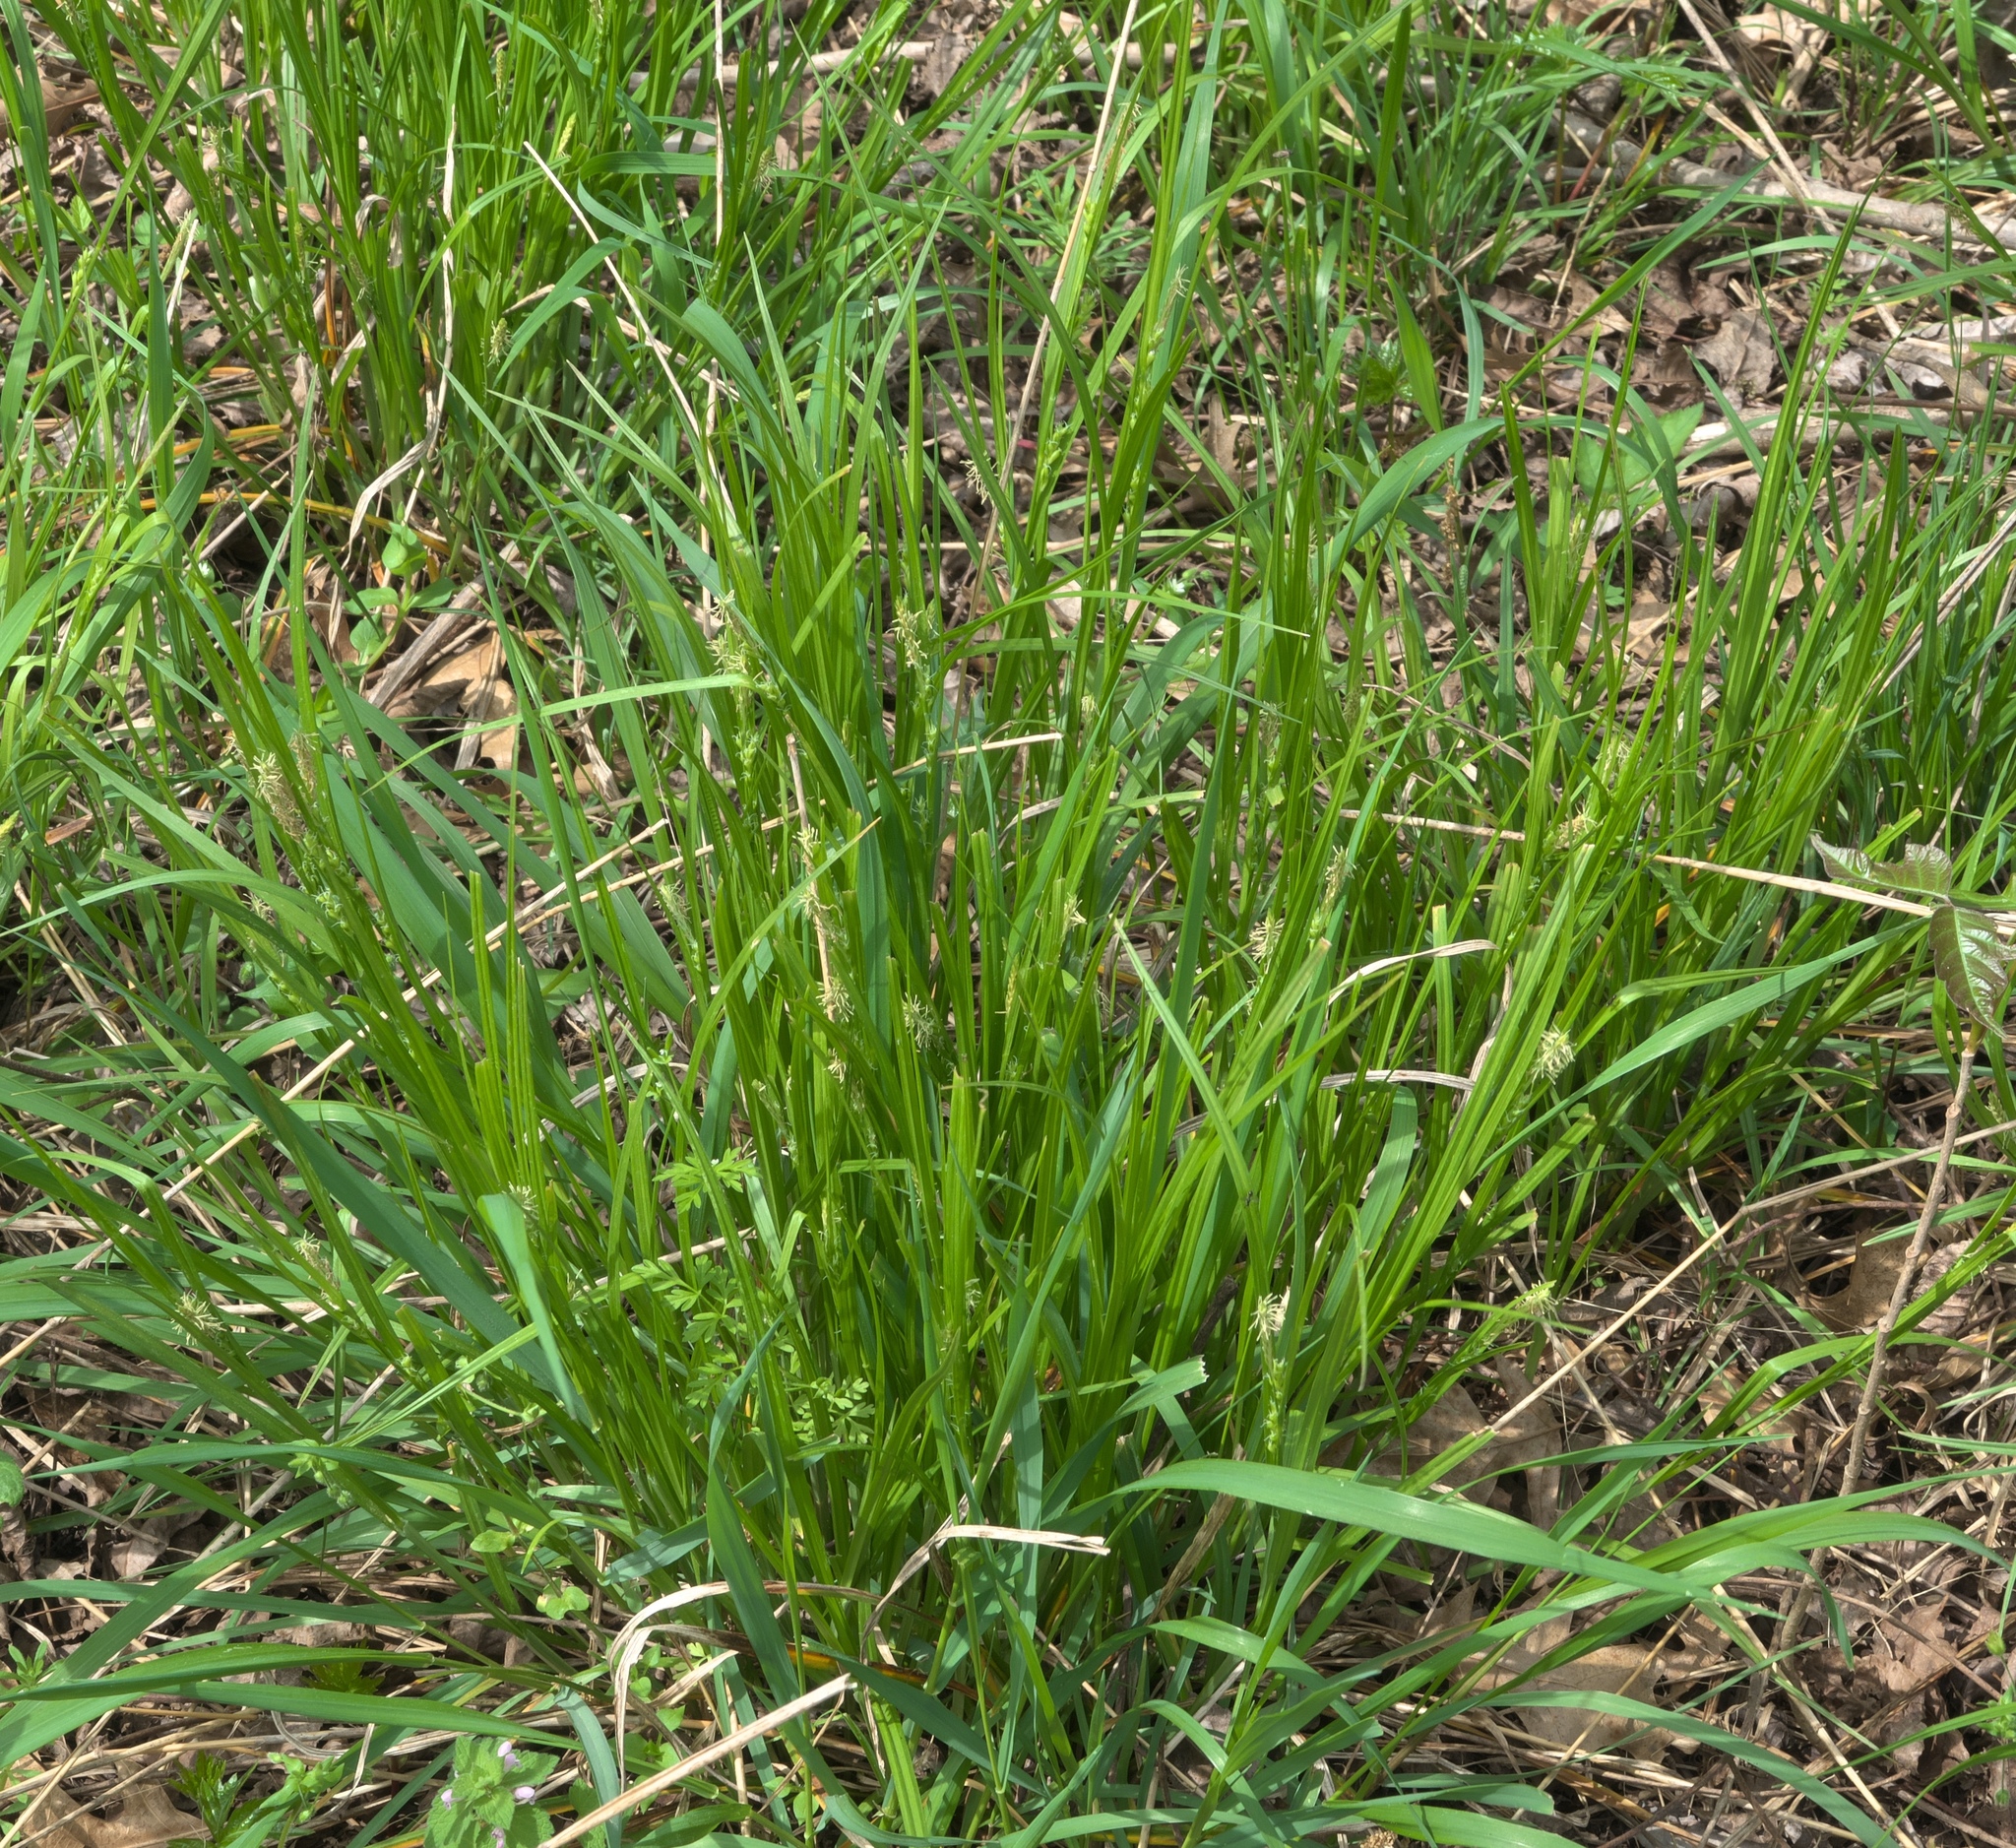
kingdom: Plantae
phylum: Tracheophyta
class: Liliopsida
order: Poales
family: Cyperaceae
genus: Carex
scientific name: Carex blanda
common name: Bland sedge
